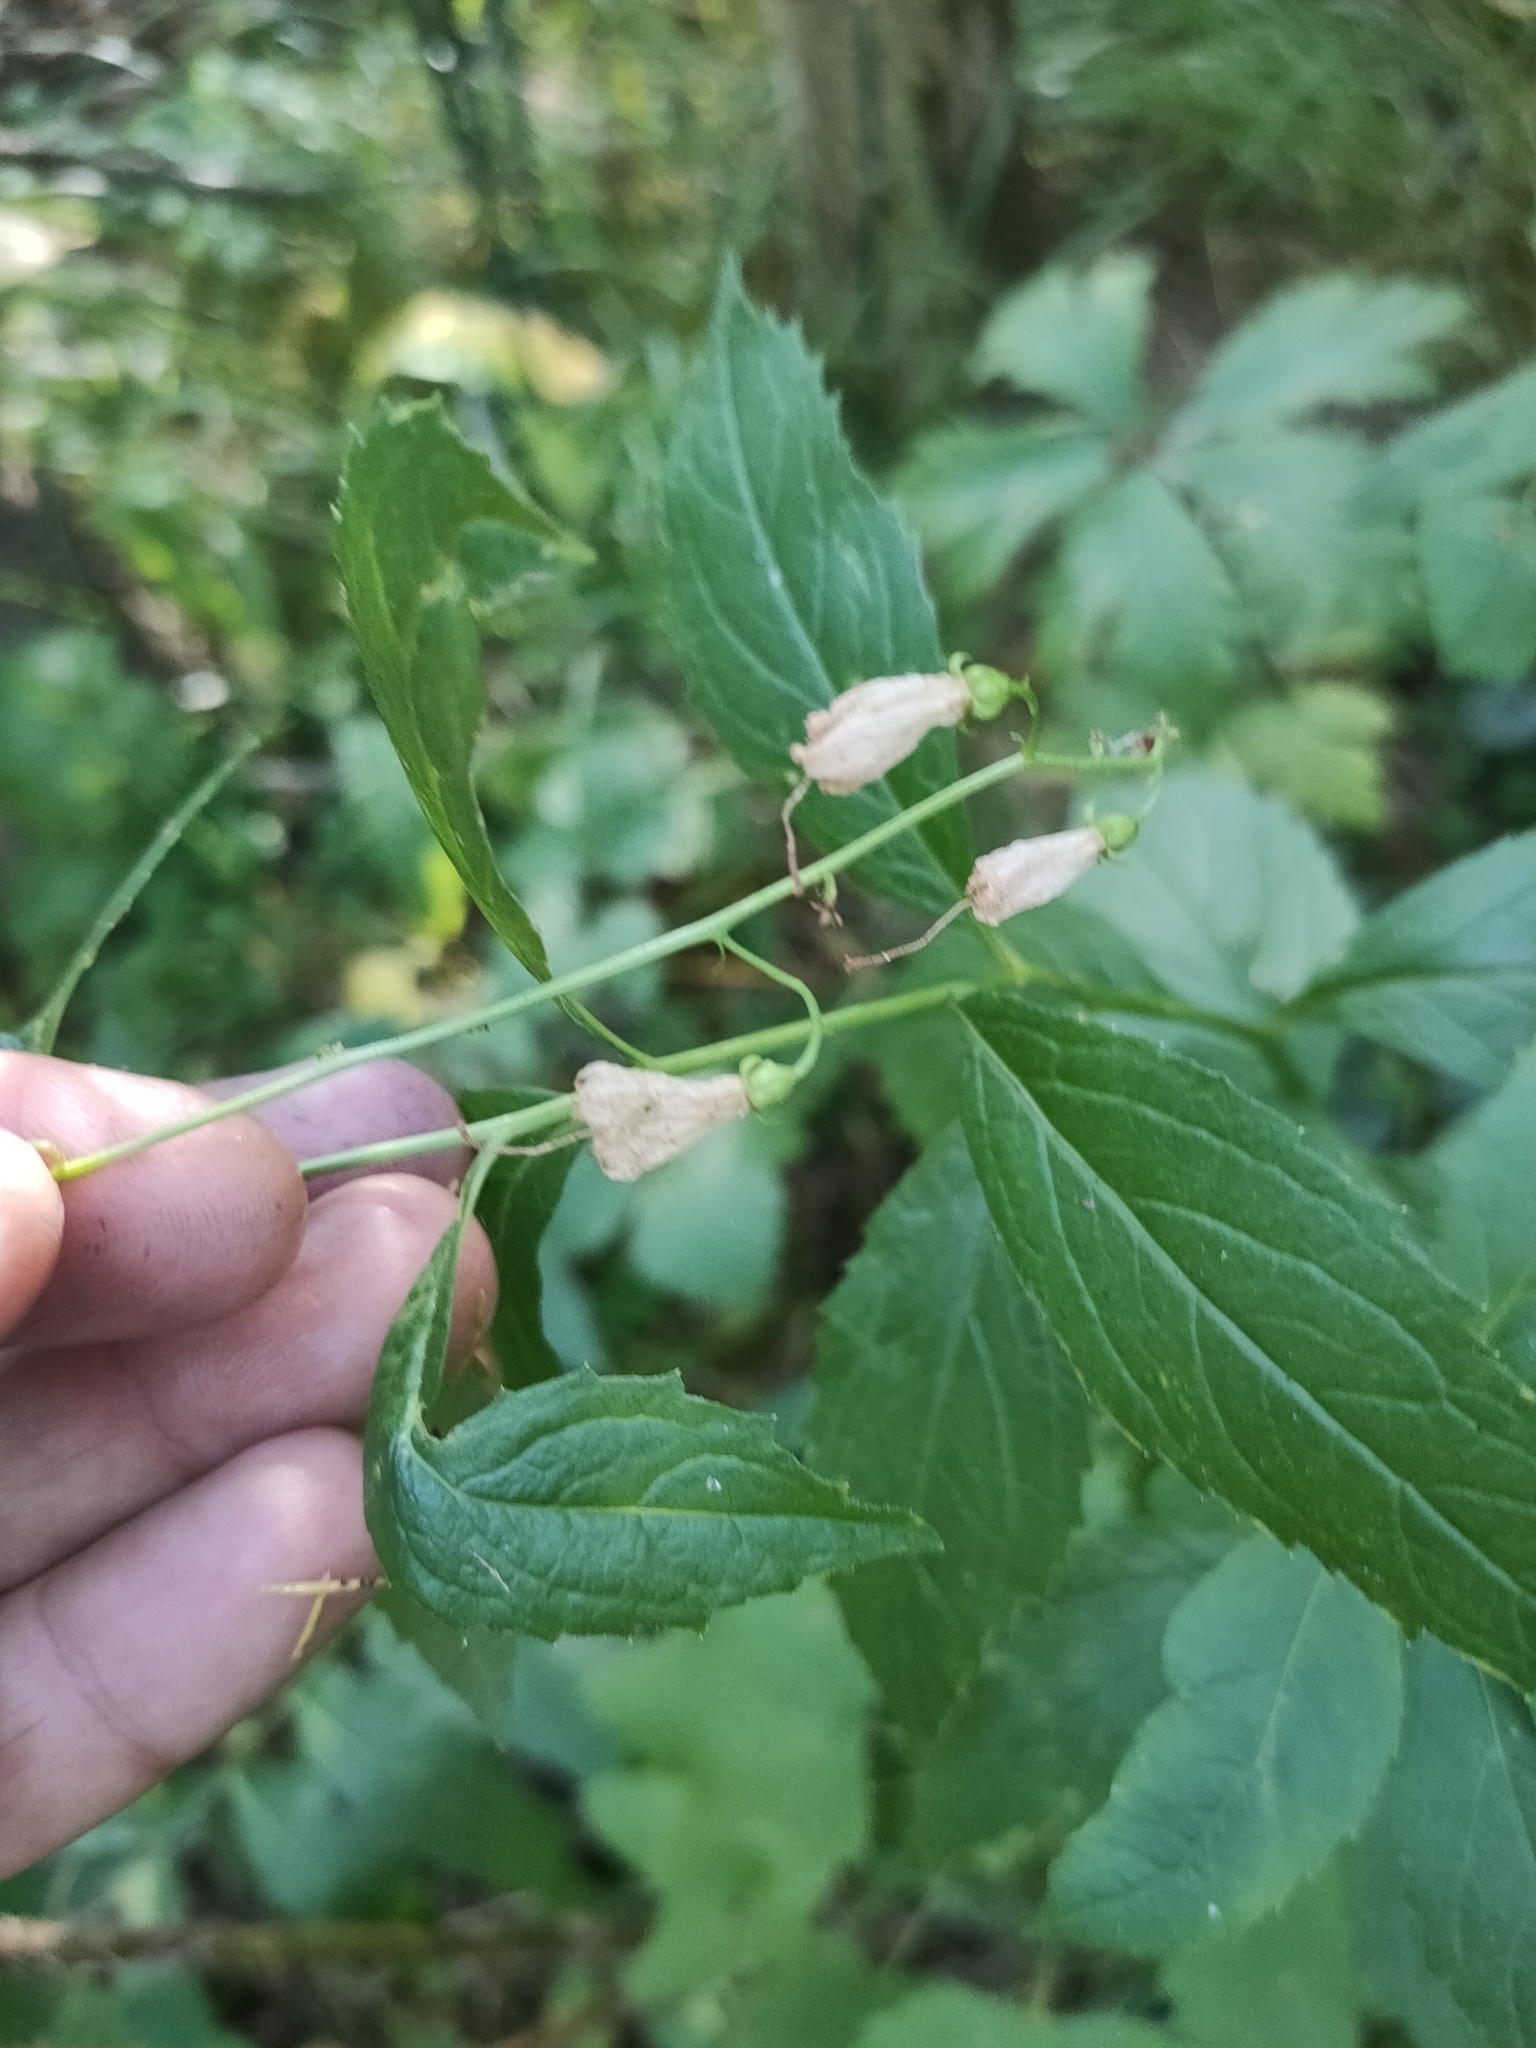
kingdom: Plantae
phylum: Tracheophyta
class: Magnoliopsida
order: Asterales
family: Campanulaceae
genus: Adenophora
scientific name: Adenophora liliifolia
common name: Lilyleaf ladybells
